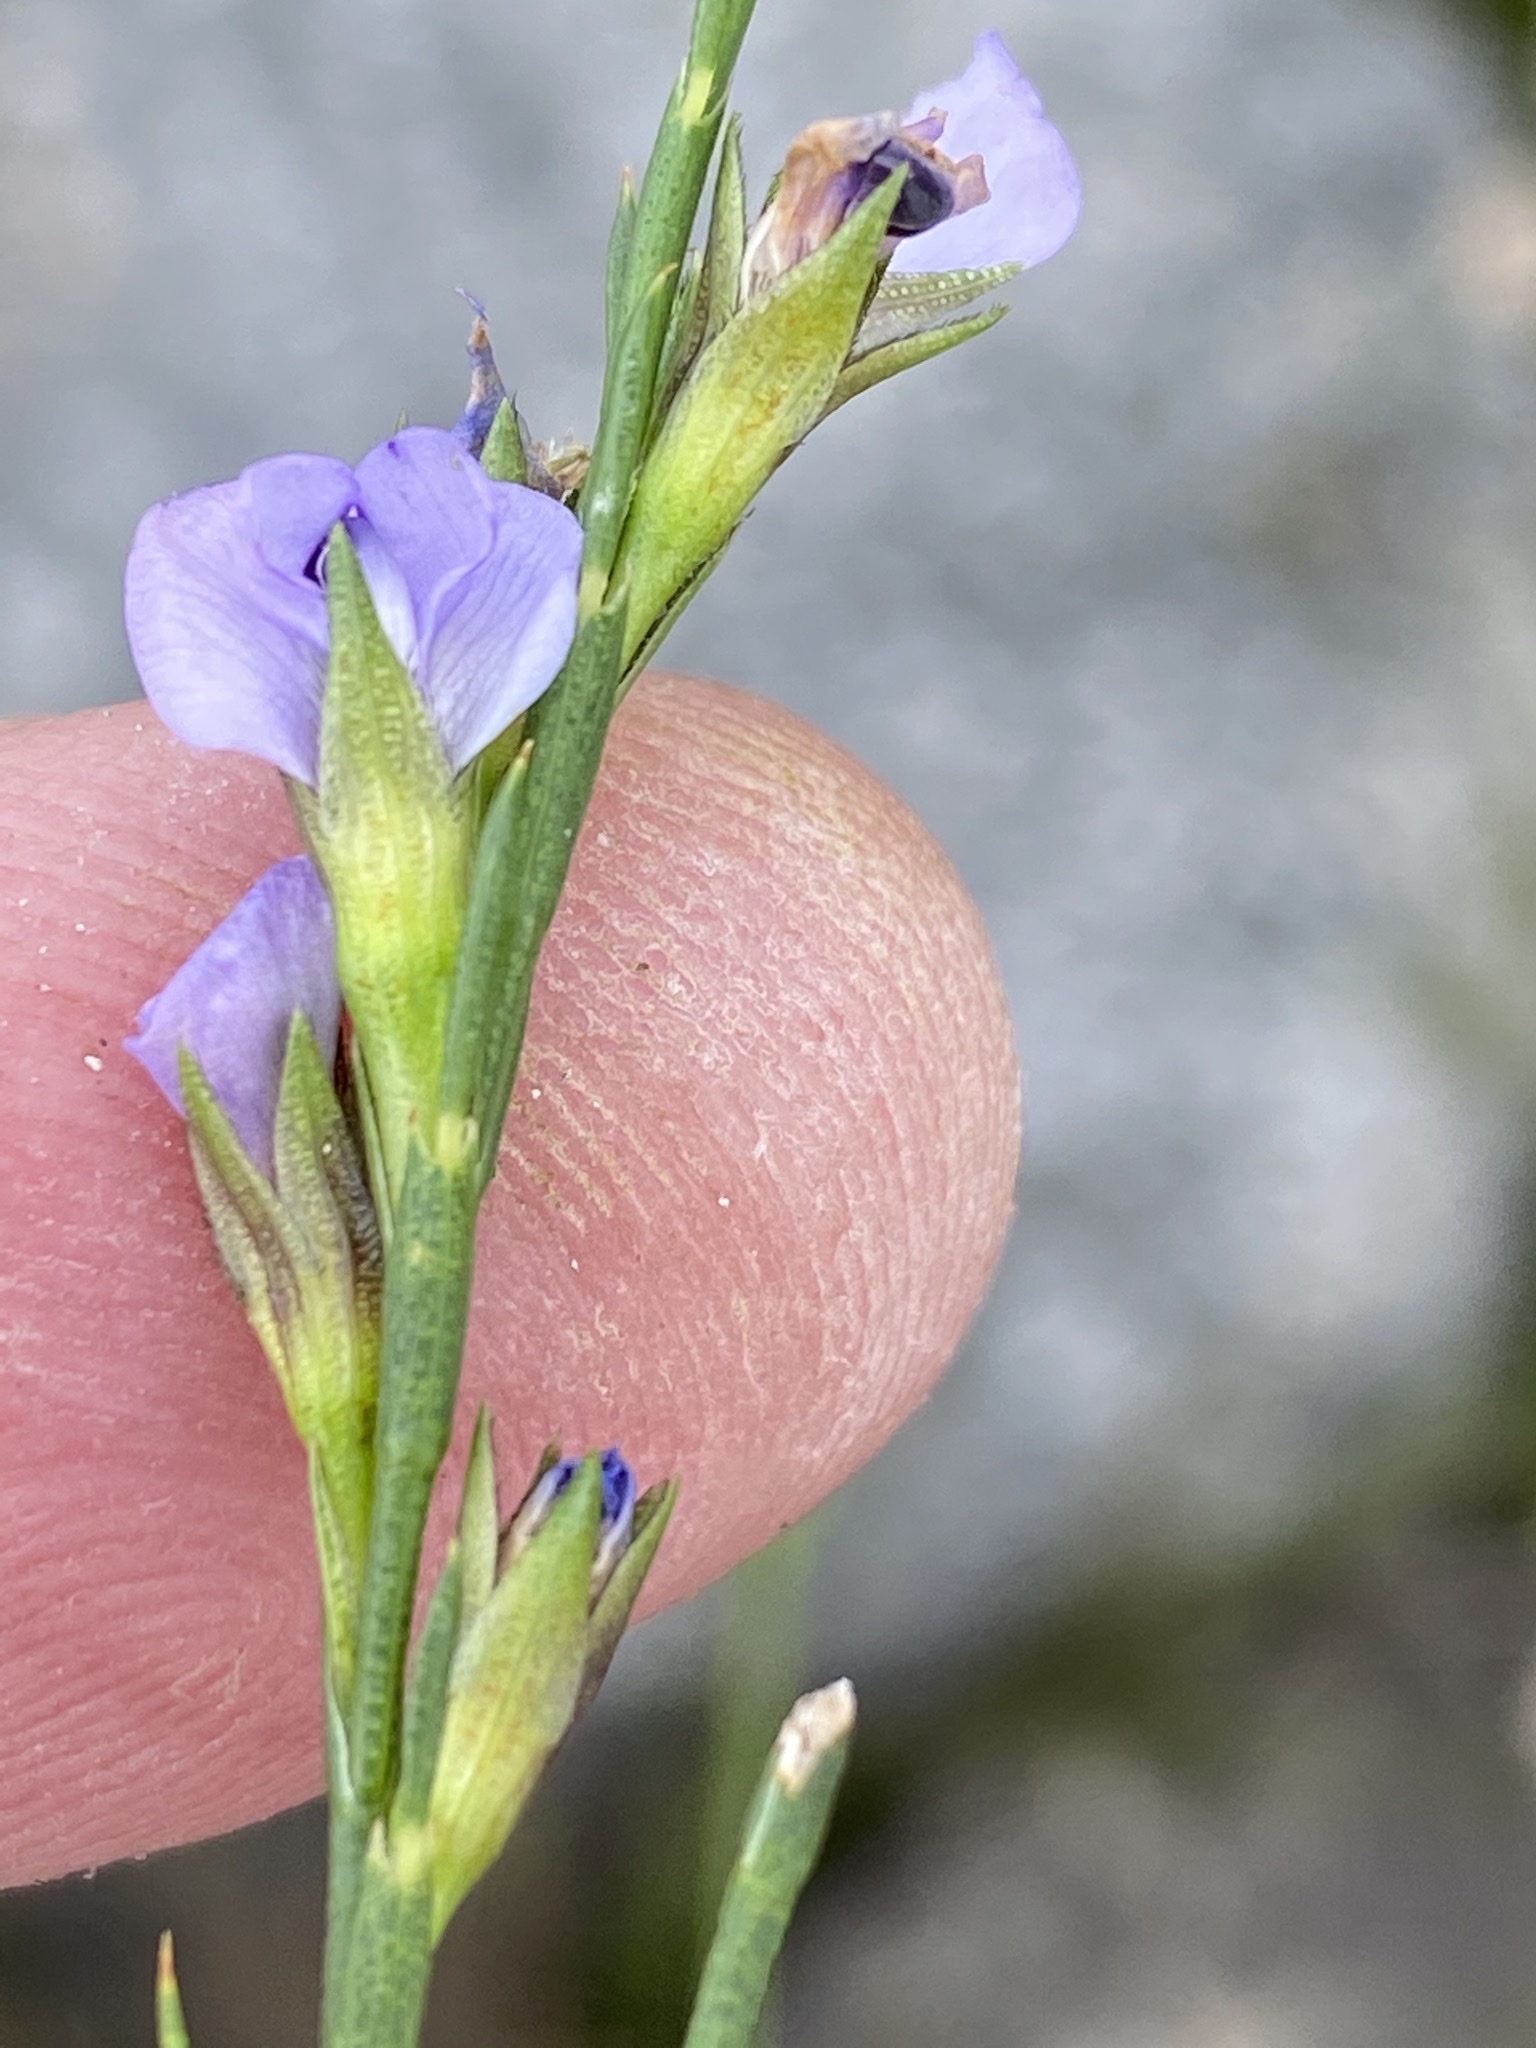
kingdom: Plantae
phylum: Tracheophyta
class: Magnoliopsida
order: Fabales
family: Fabaceae
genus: Psoralea
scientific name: Psoralea restioides
